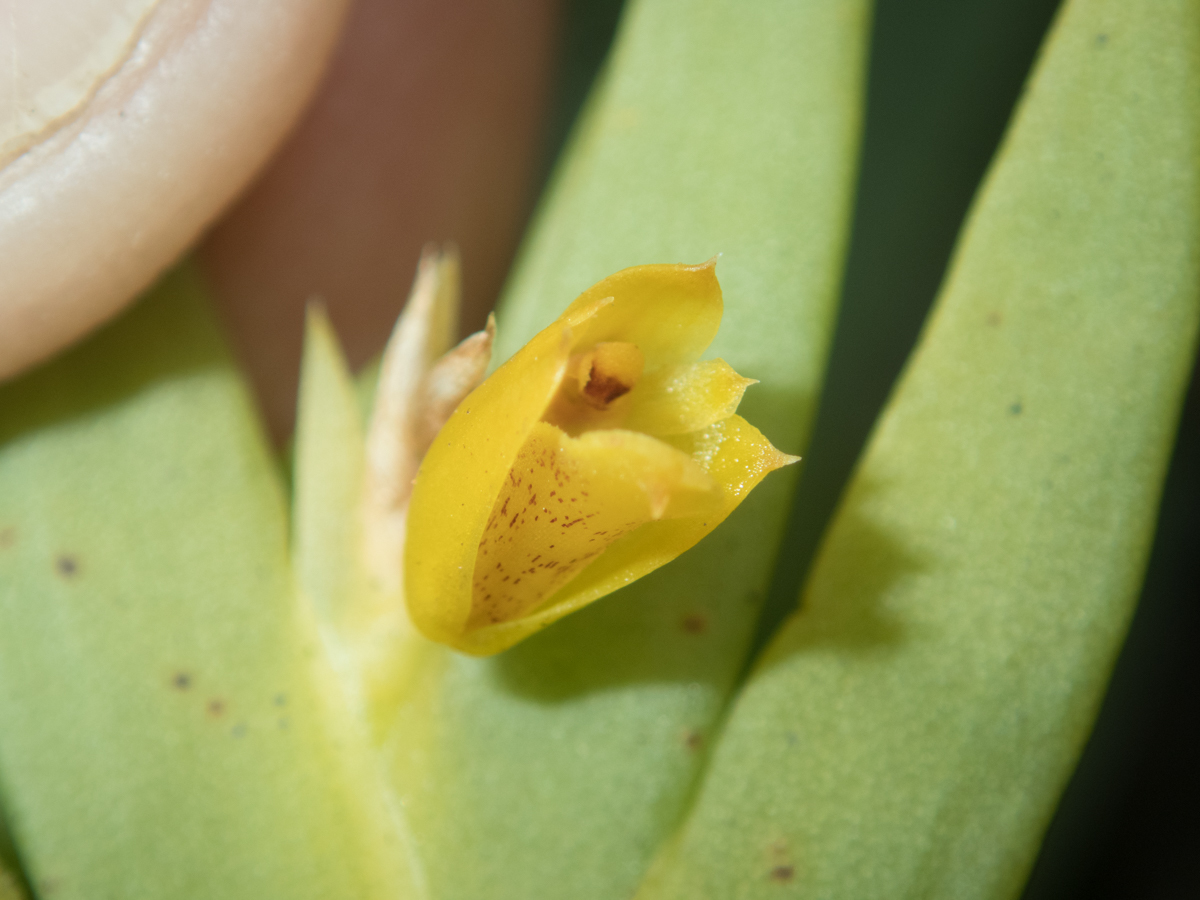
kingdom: Plantae
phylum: Tracheophyta
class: Liliopsida
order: Asparagales
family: Orchidaceae
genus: Oxystophyllum
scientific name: Oxystophyllum carnosum
